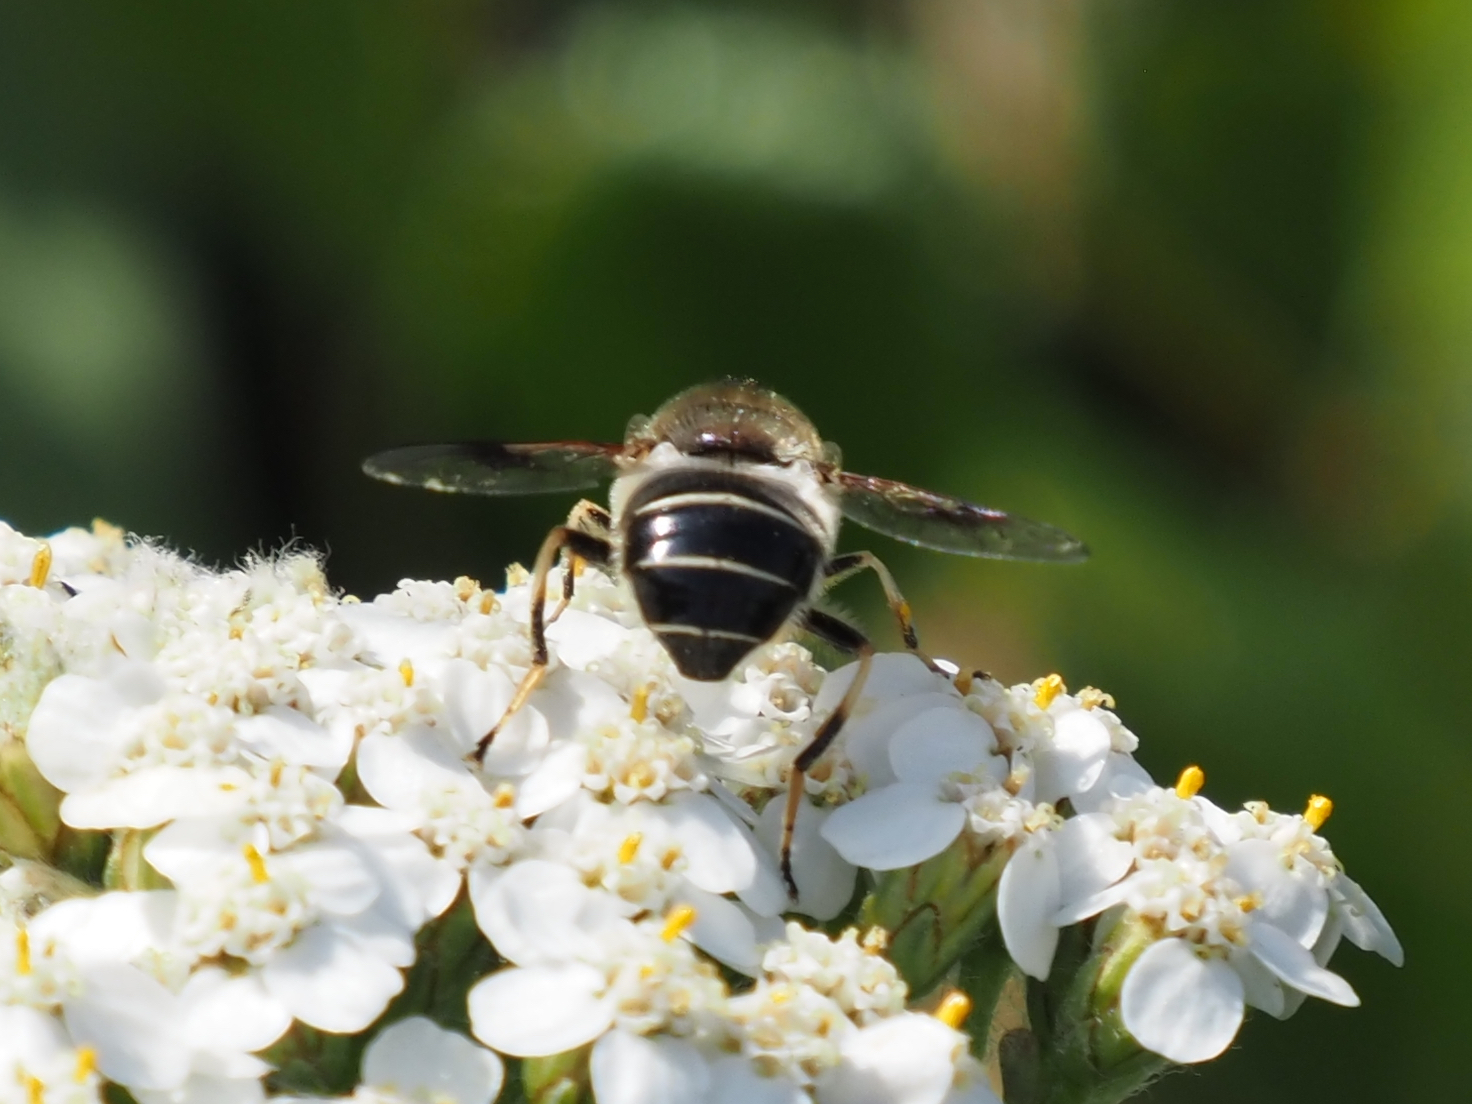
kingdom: Animalia
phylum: Arthropoda
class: Insecta
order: Diptera
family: Syrphidae
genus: Eristalis
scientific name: Eristalis rupium
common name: Hover fly
